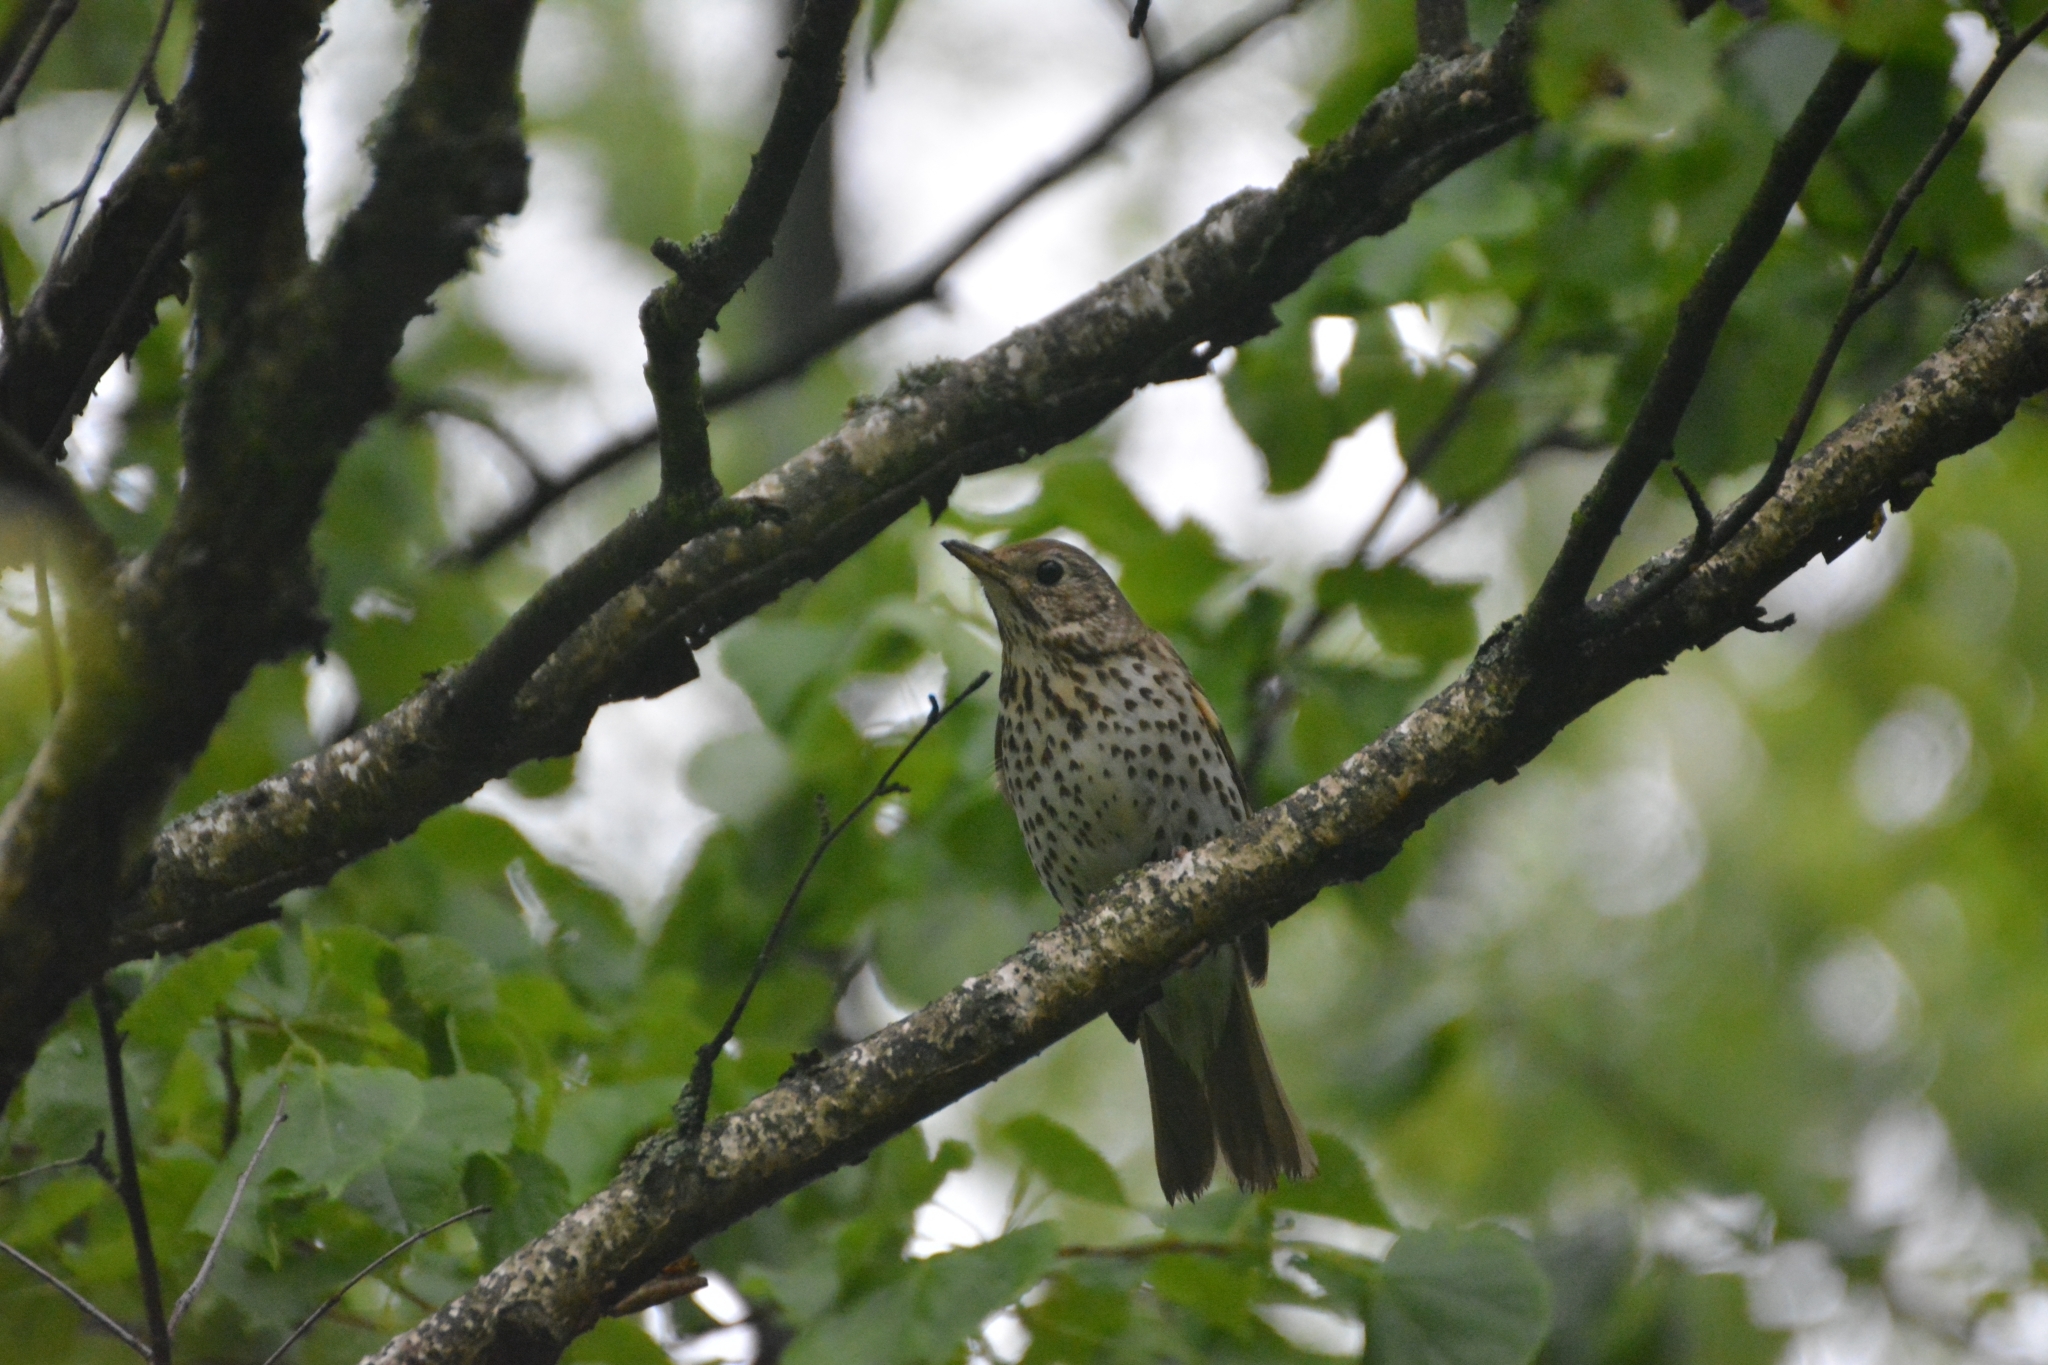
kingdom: Animalia
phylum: Chordata
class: Aves
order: Passeriformes
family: Turdidae
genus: Turdus
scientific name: Turdus philomelos
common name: Song thrush
